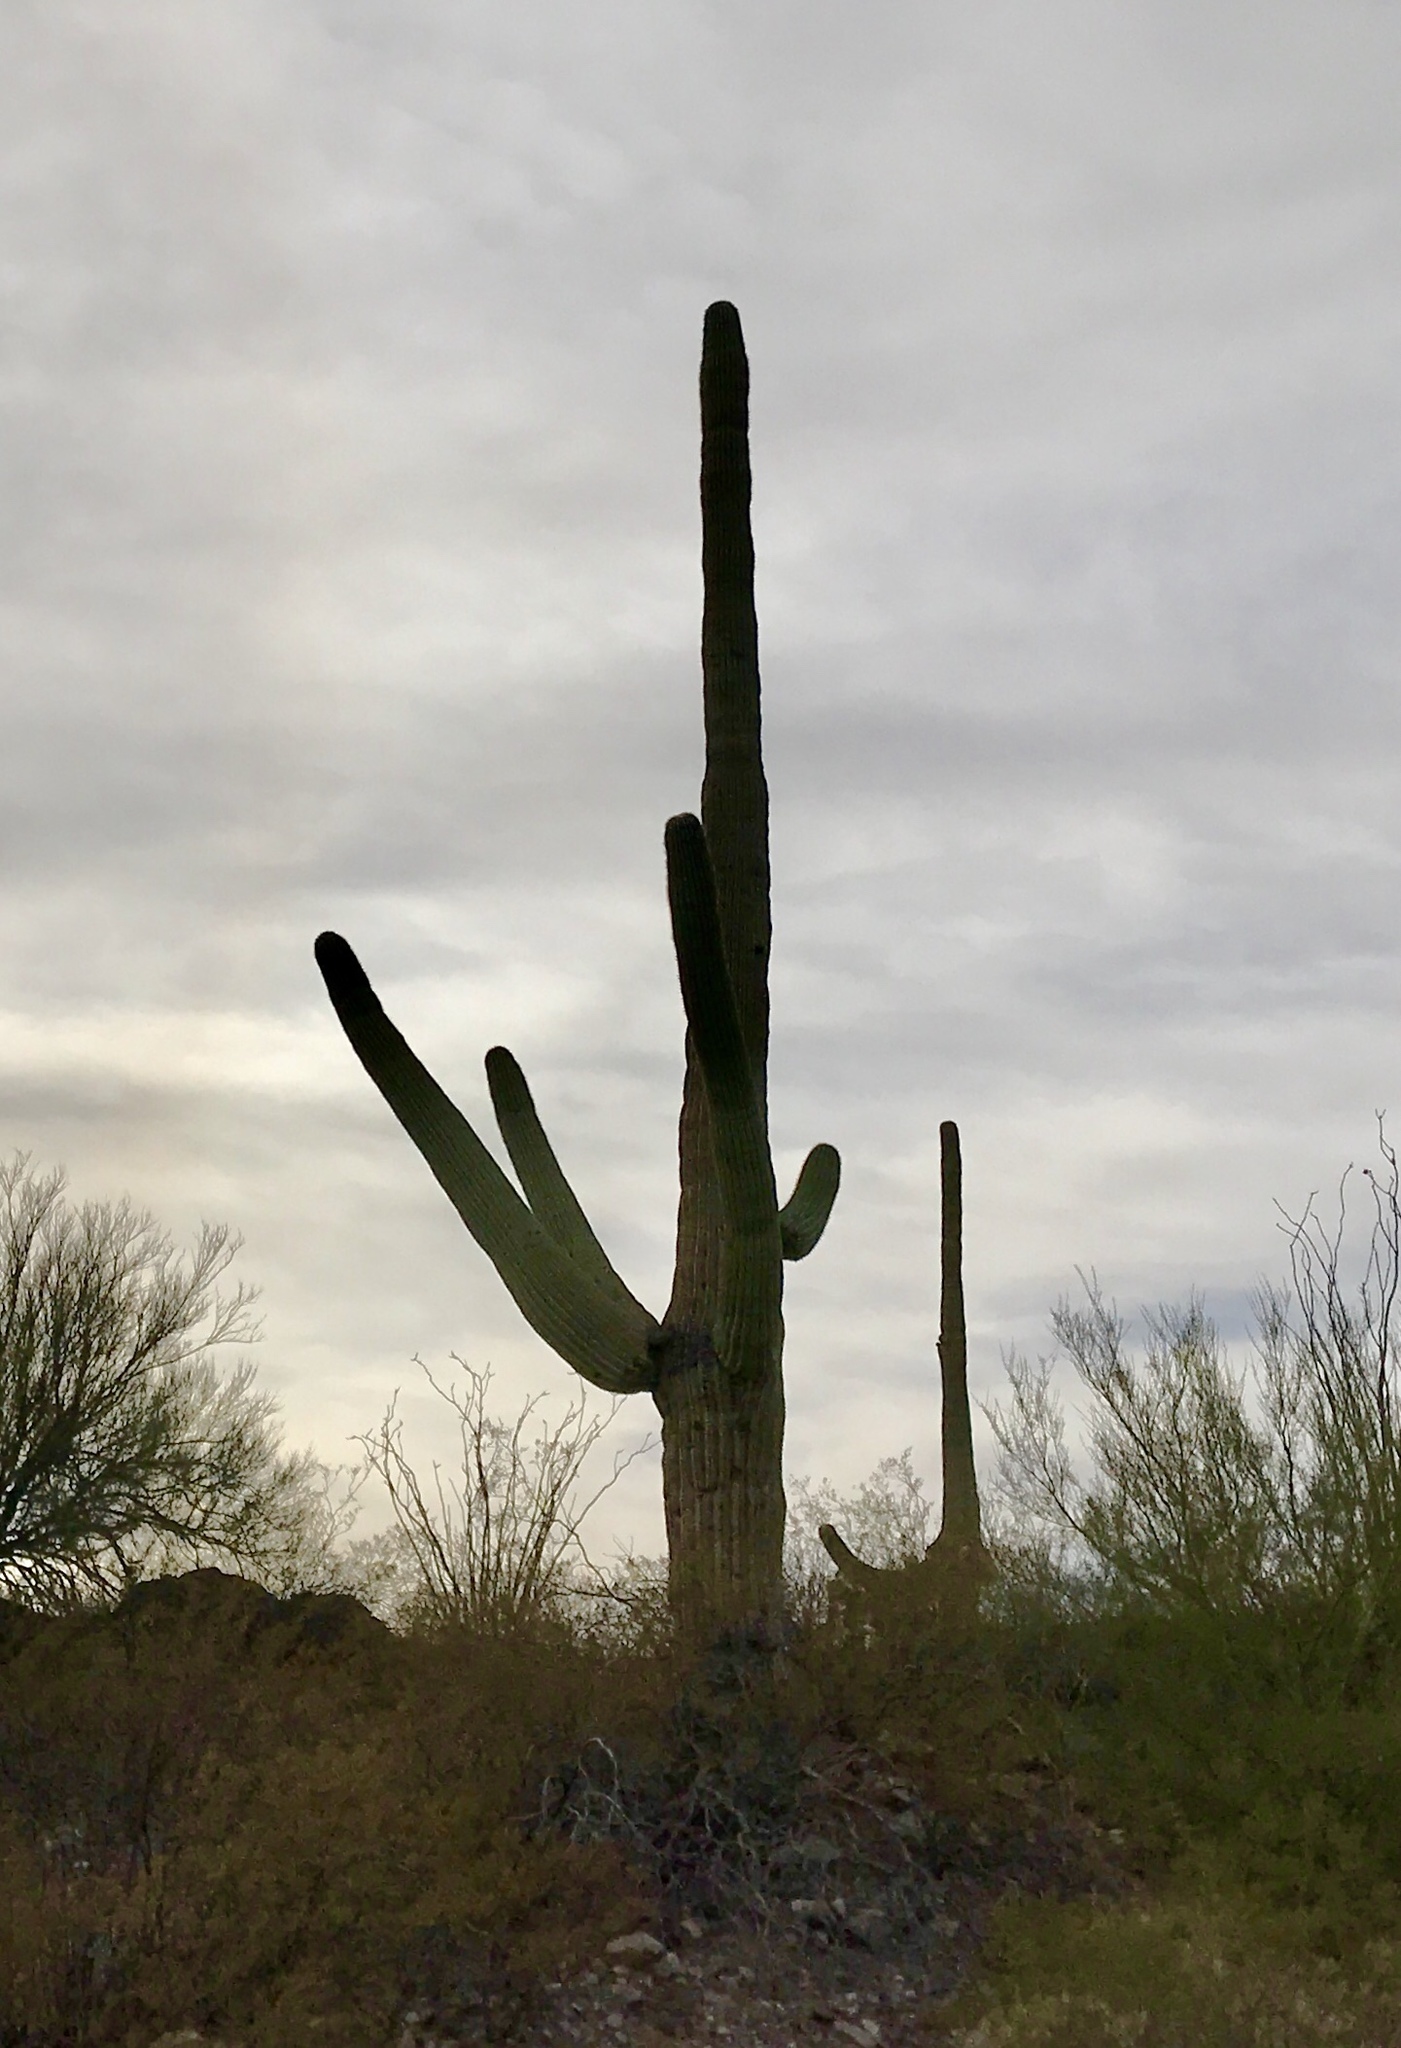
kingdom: Plantae
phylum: Tracheophyta
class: Magnoliopsida
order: Caryophyllales
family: Cactaceae
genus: Carnegiea
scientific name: Carnegiea gigantea
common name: Saguaro
